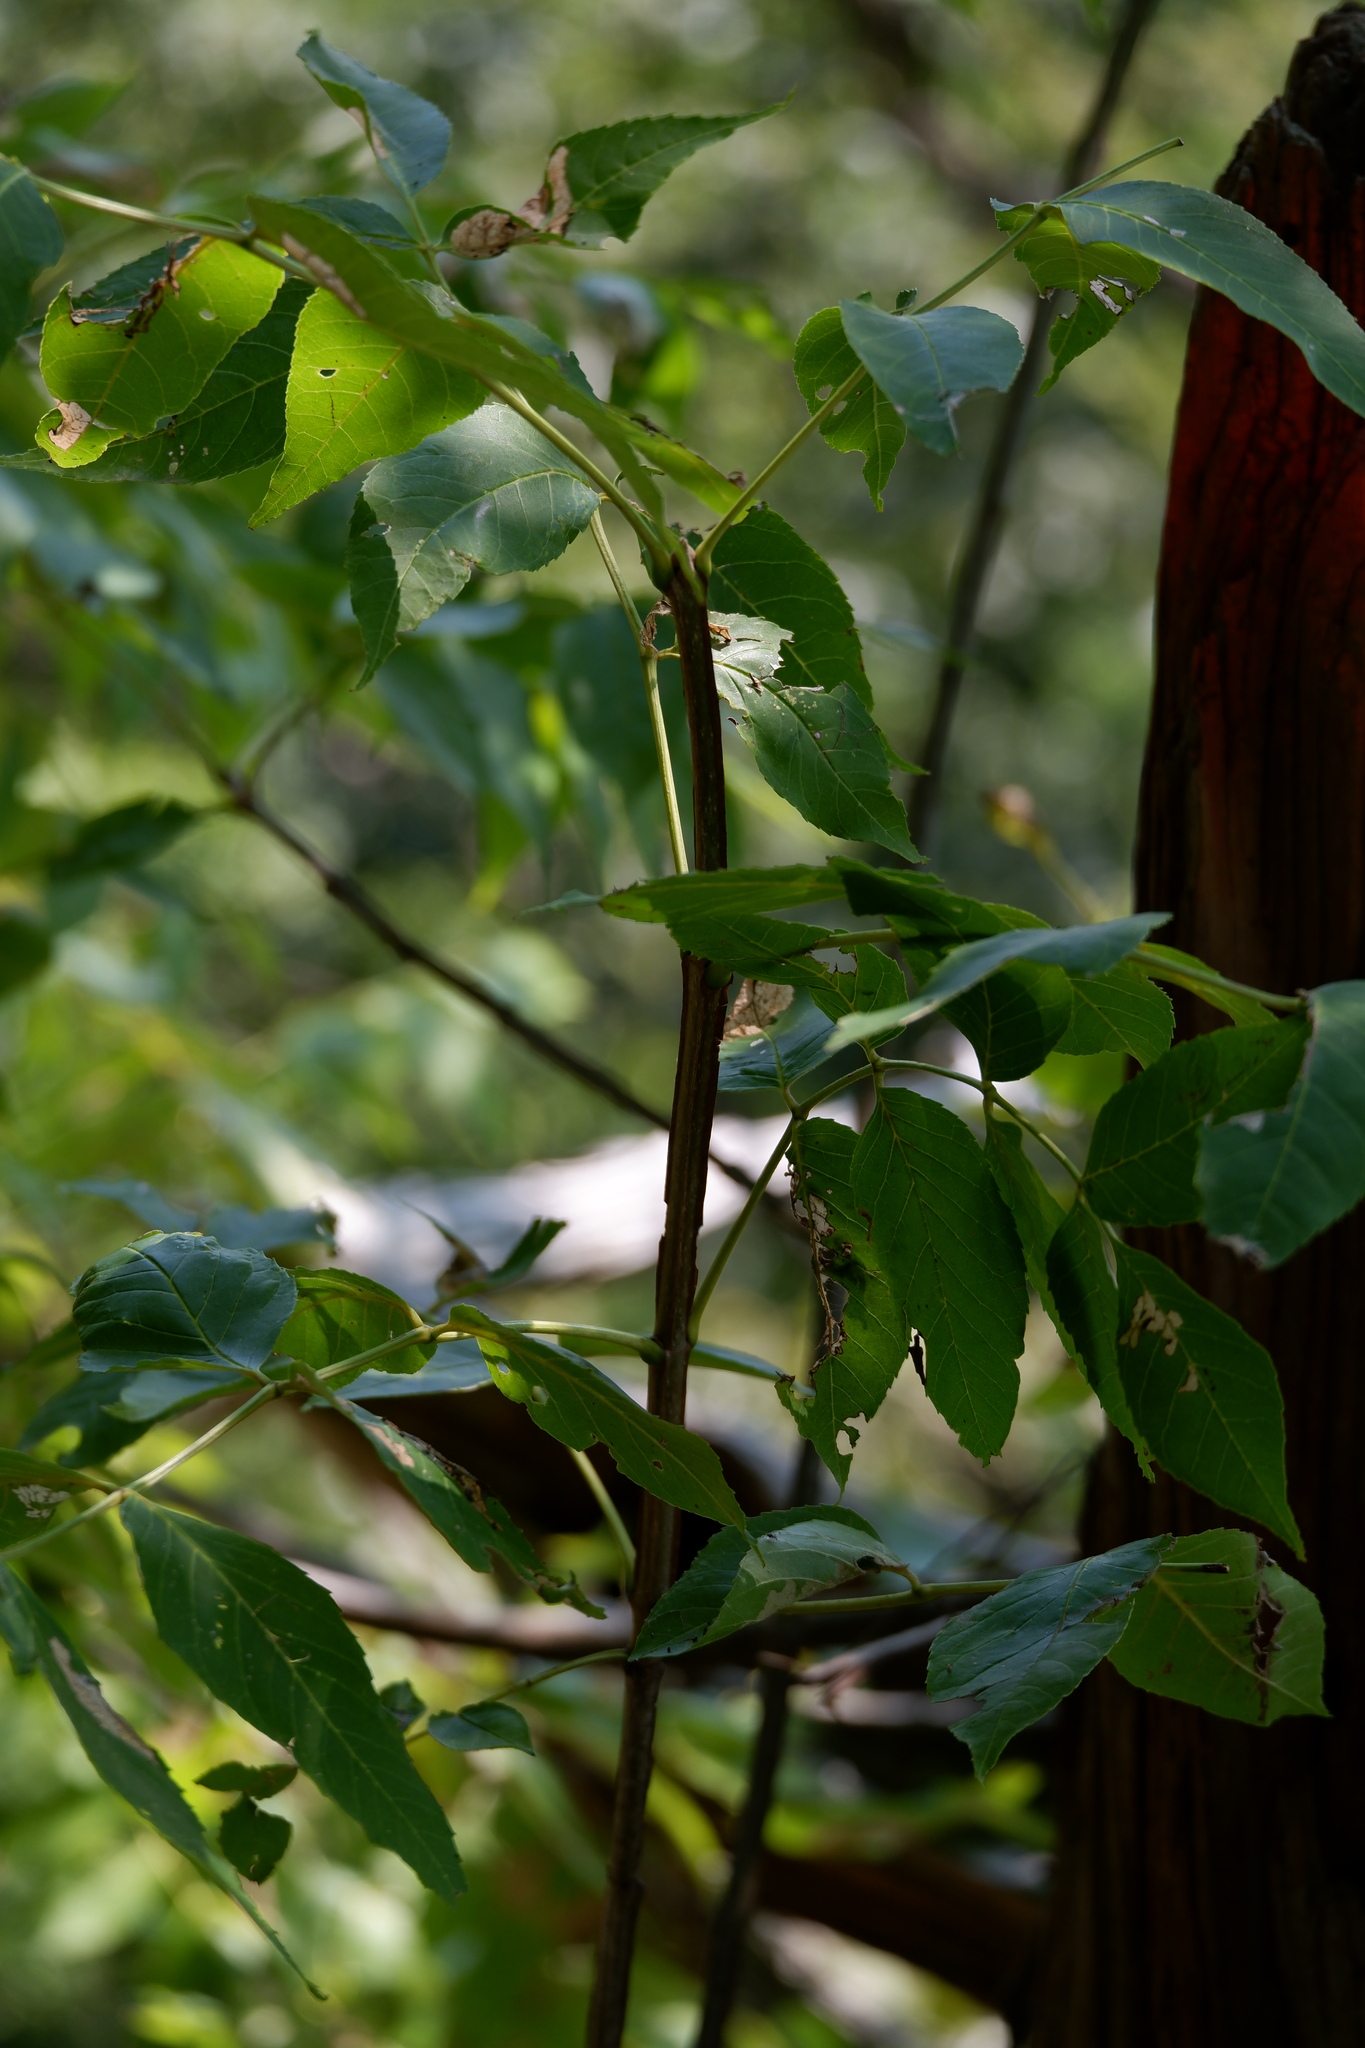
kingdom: Plantae
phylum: Tracheophyta
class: Magnoliopsida
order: Lamiales
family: Oleaceae
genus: Fraxinus
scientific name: Fraxinus quadrangulata
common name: Blue ash
